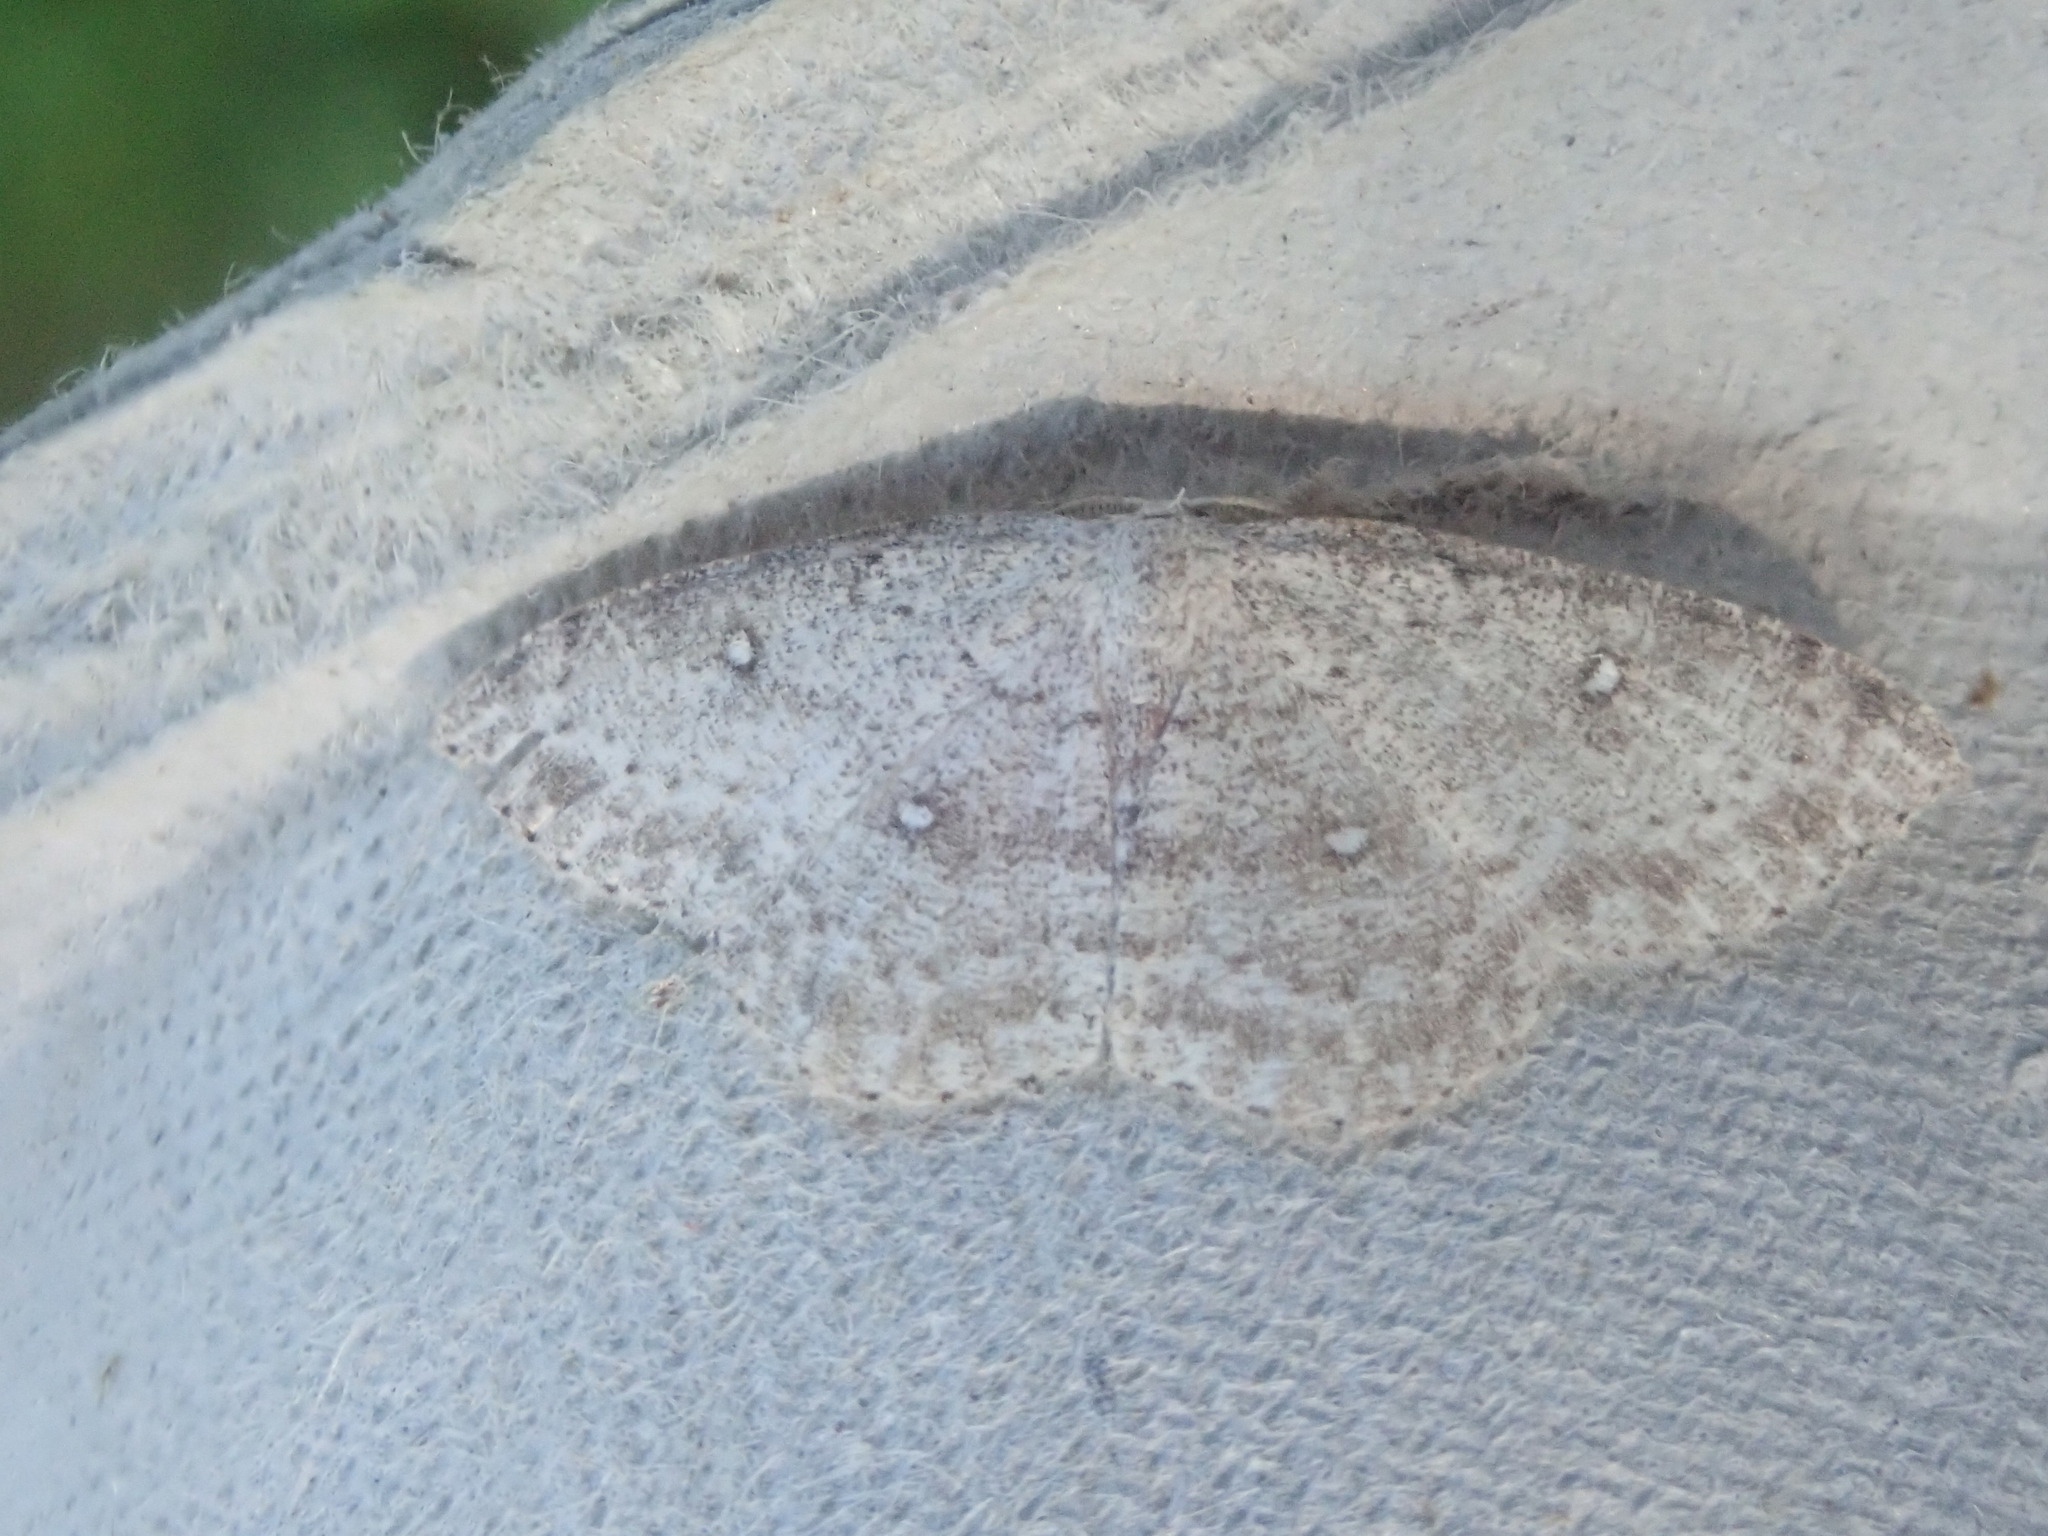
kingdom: Animalia
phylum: Arthropoda
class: Insecta
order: Lepidoptera
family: Geometridae
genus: Cyclophora
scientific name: Cyclophora pendulinaria
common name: Sweet fern geometer
